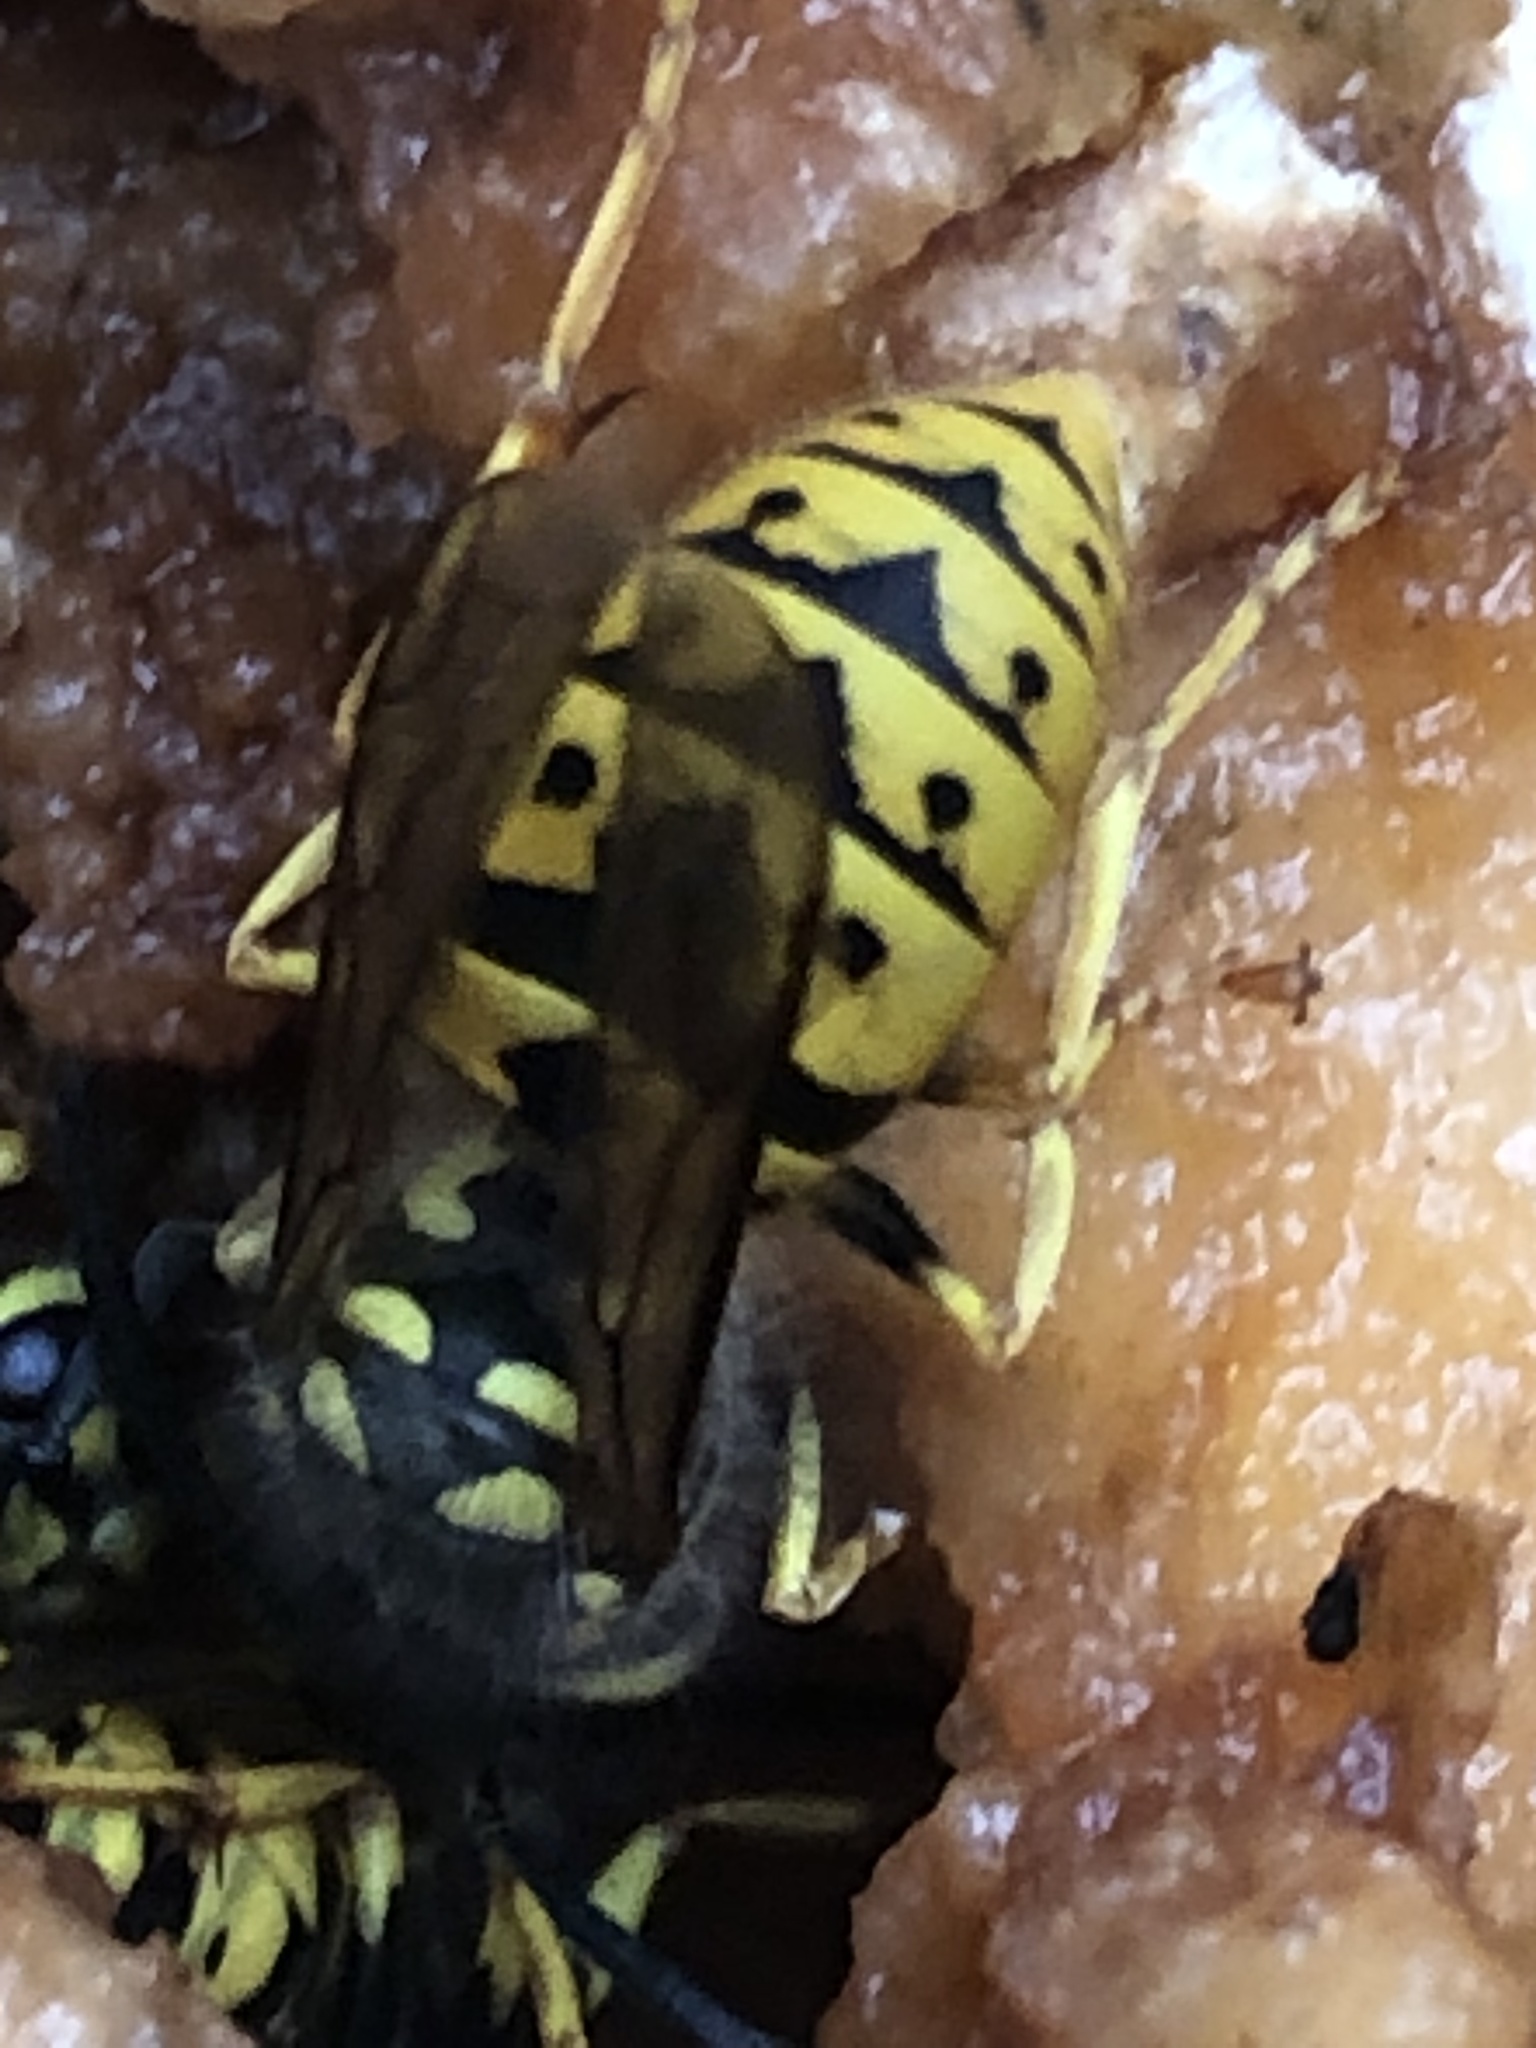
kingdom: Animalia
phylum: Arthropoda
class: Insecta
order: Hymenoptera
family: Vespidae
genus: Vespula
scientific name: Vespula germanica
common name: German wasp
